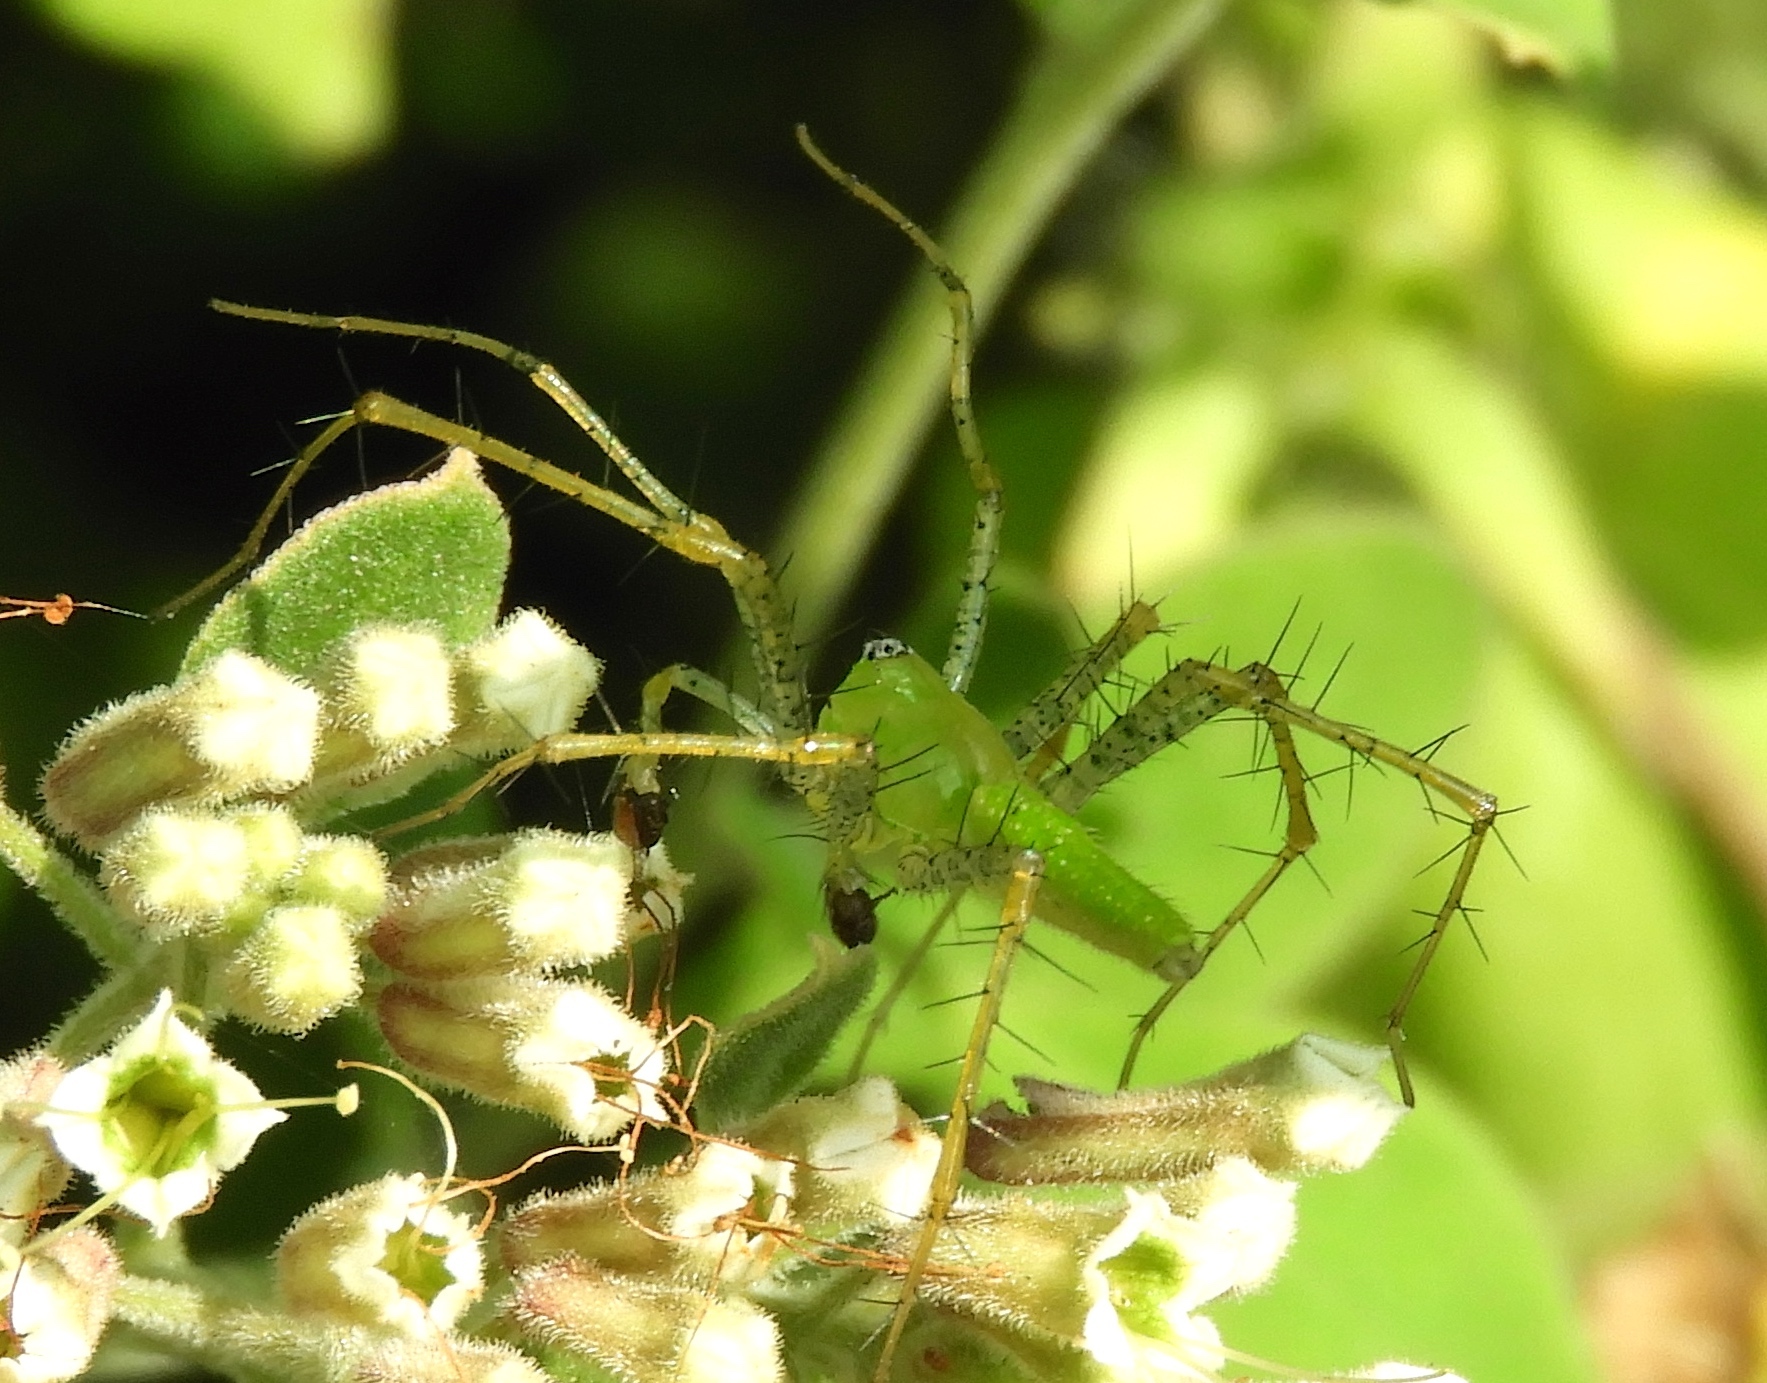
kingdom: Animalia
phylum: Arthropoda
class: Arachnida
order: Araneae
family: Oxyopidae
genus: Peucetia
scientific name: Peucetia longipalpis
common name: Lynx spiders
